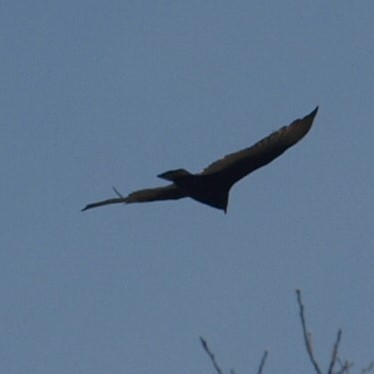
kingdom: Animalia
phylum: Chordata
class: Aves
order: Accipitriformes
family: Cathartidae
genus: Cathartes
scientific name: Cathartes aura
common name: Turkey vulture
